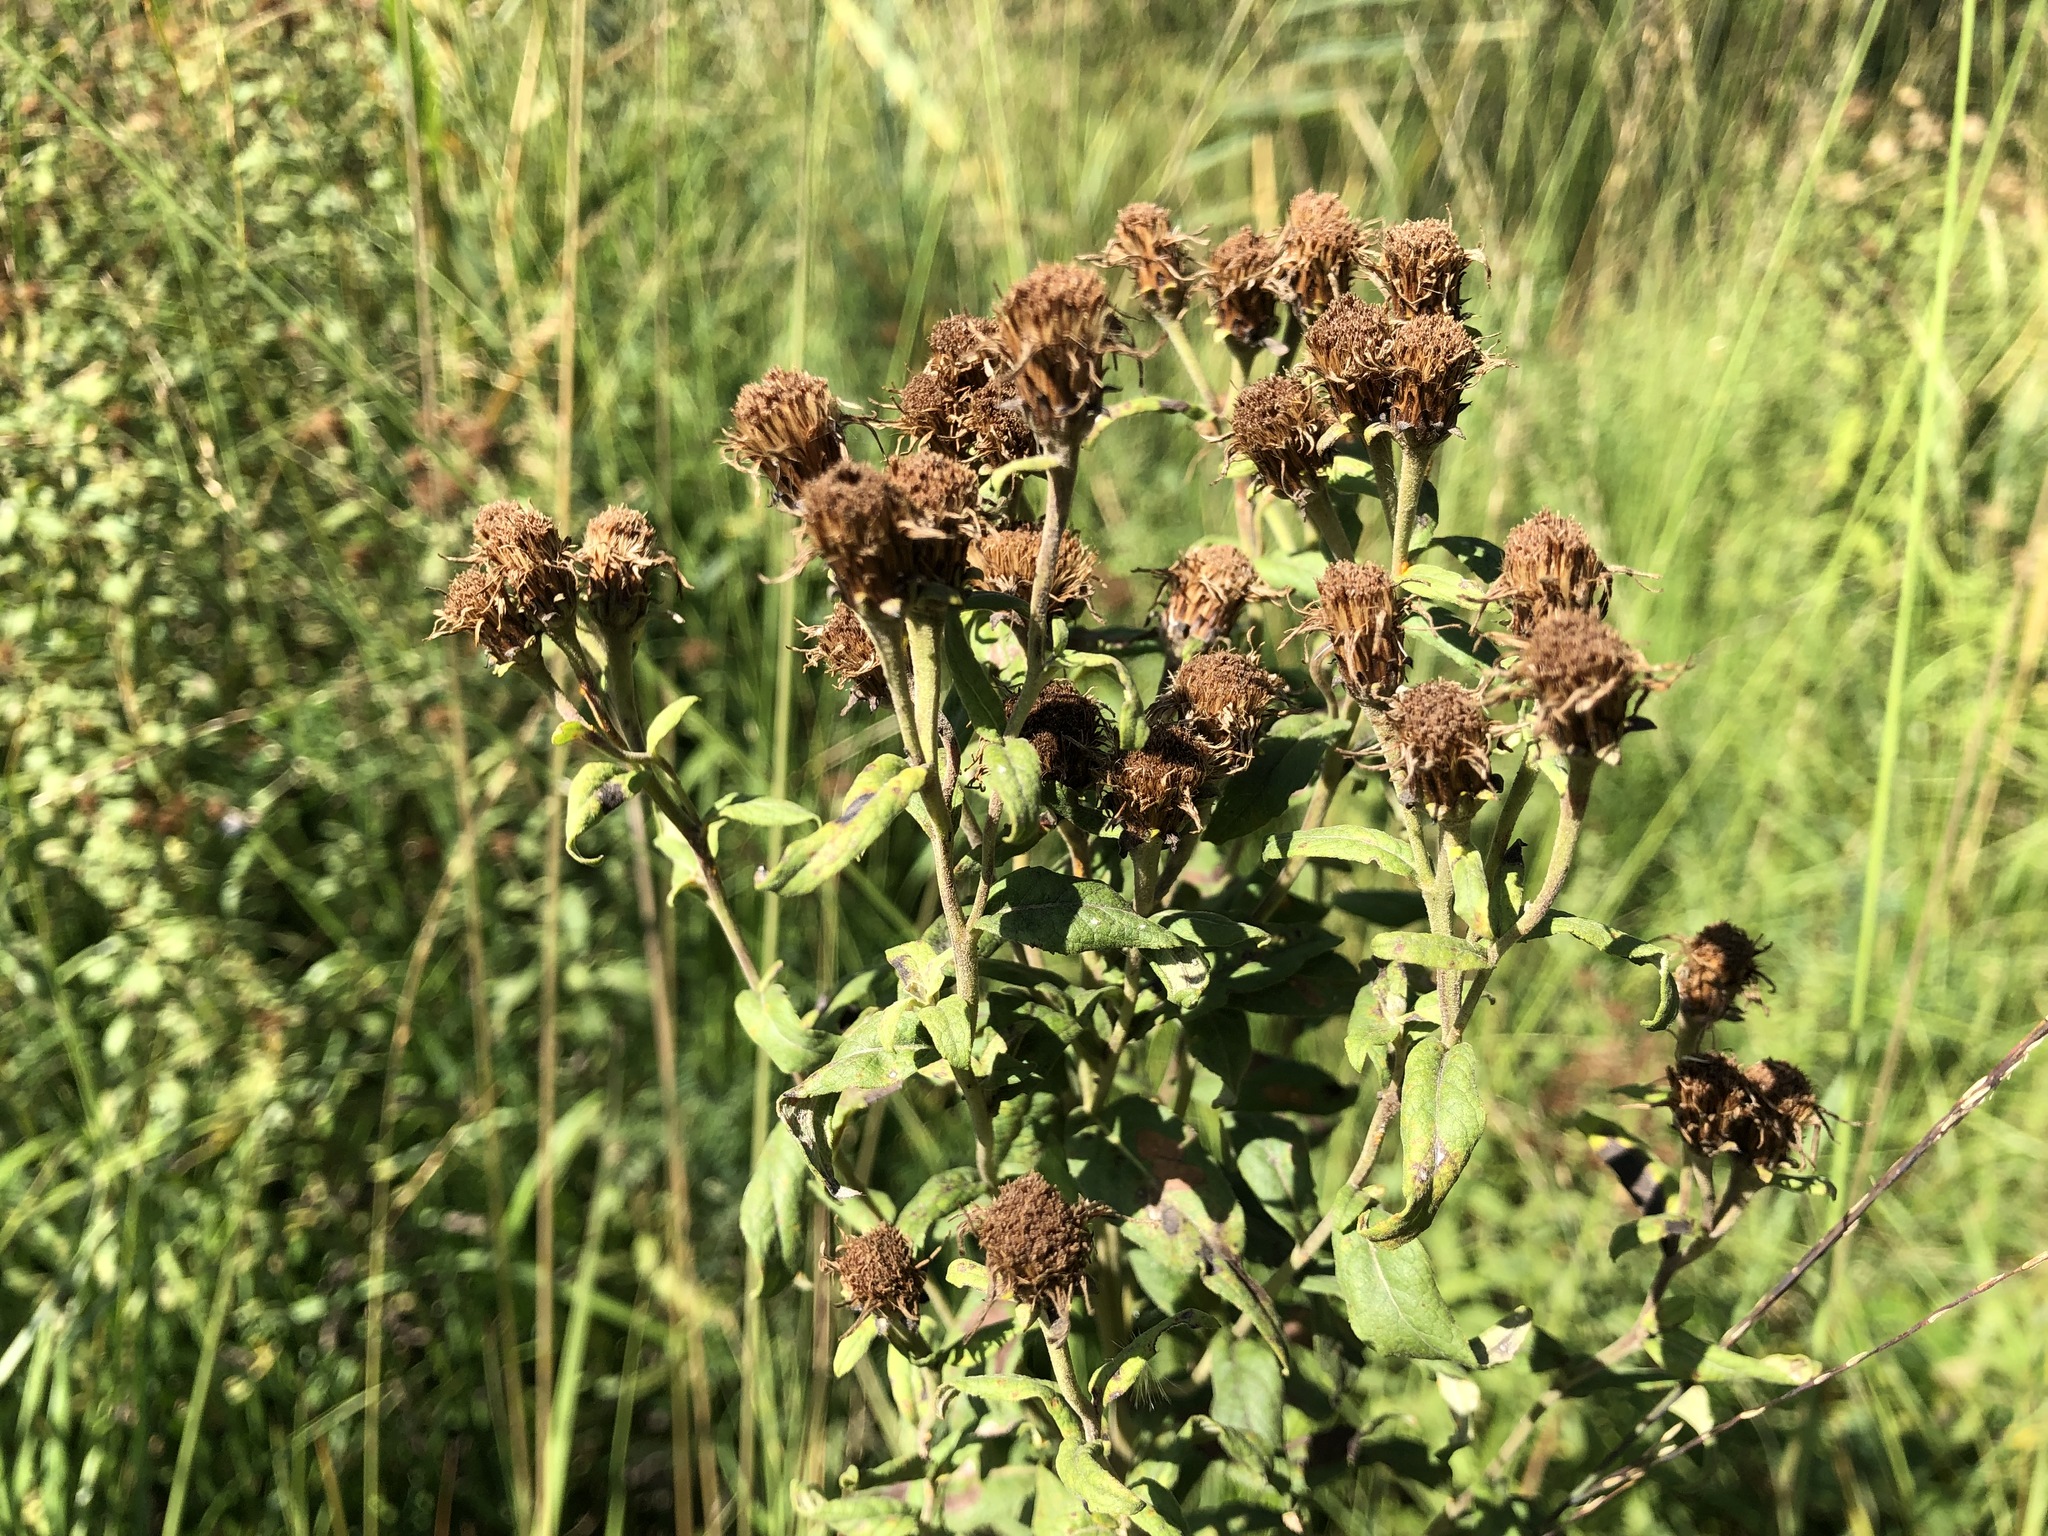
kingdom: Plantae
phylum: Tracheophyta
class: Magnoliopsida
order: Asterales
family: Asteraceae
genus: Pentanema
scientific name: Pentanema squarrosum
